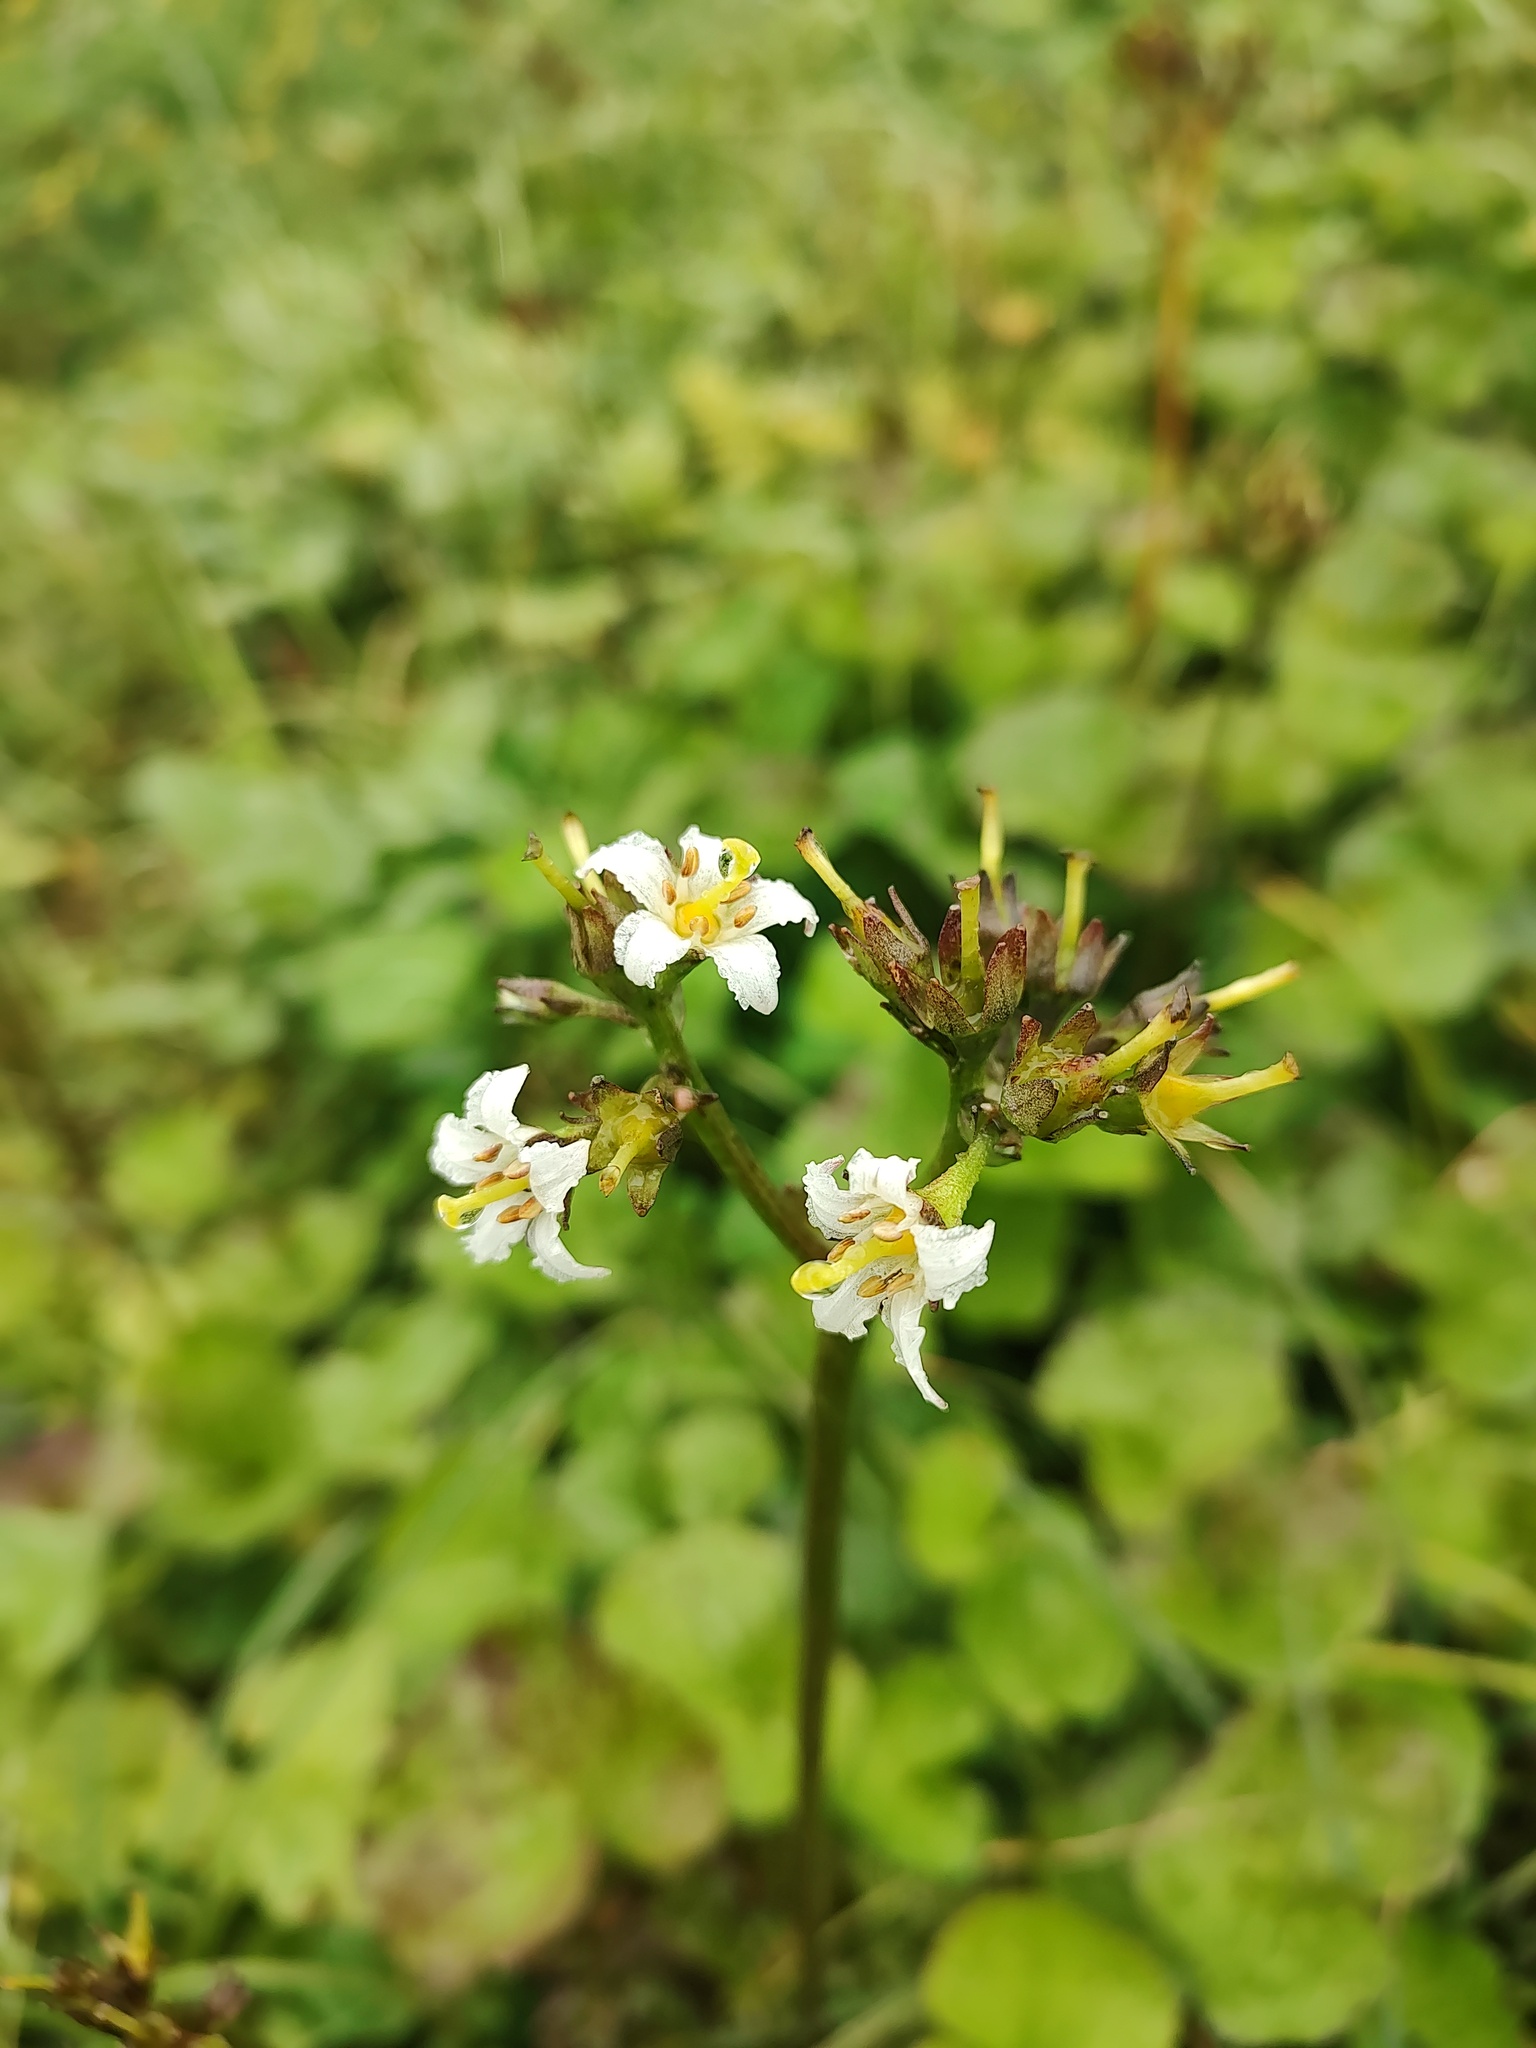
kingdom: Plantae
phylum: Tracheophyta
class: Magnoliopsida
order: Asterales
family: Menyanthaceae
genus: Nephrophyllidium
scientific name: Nephrophyllidium crista-galli
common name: Deer-cabbage
